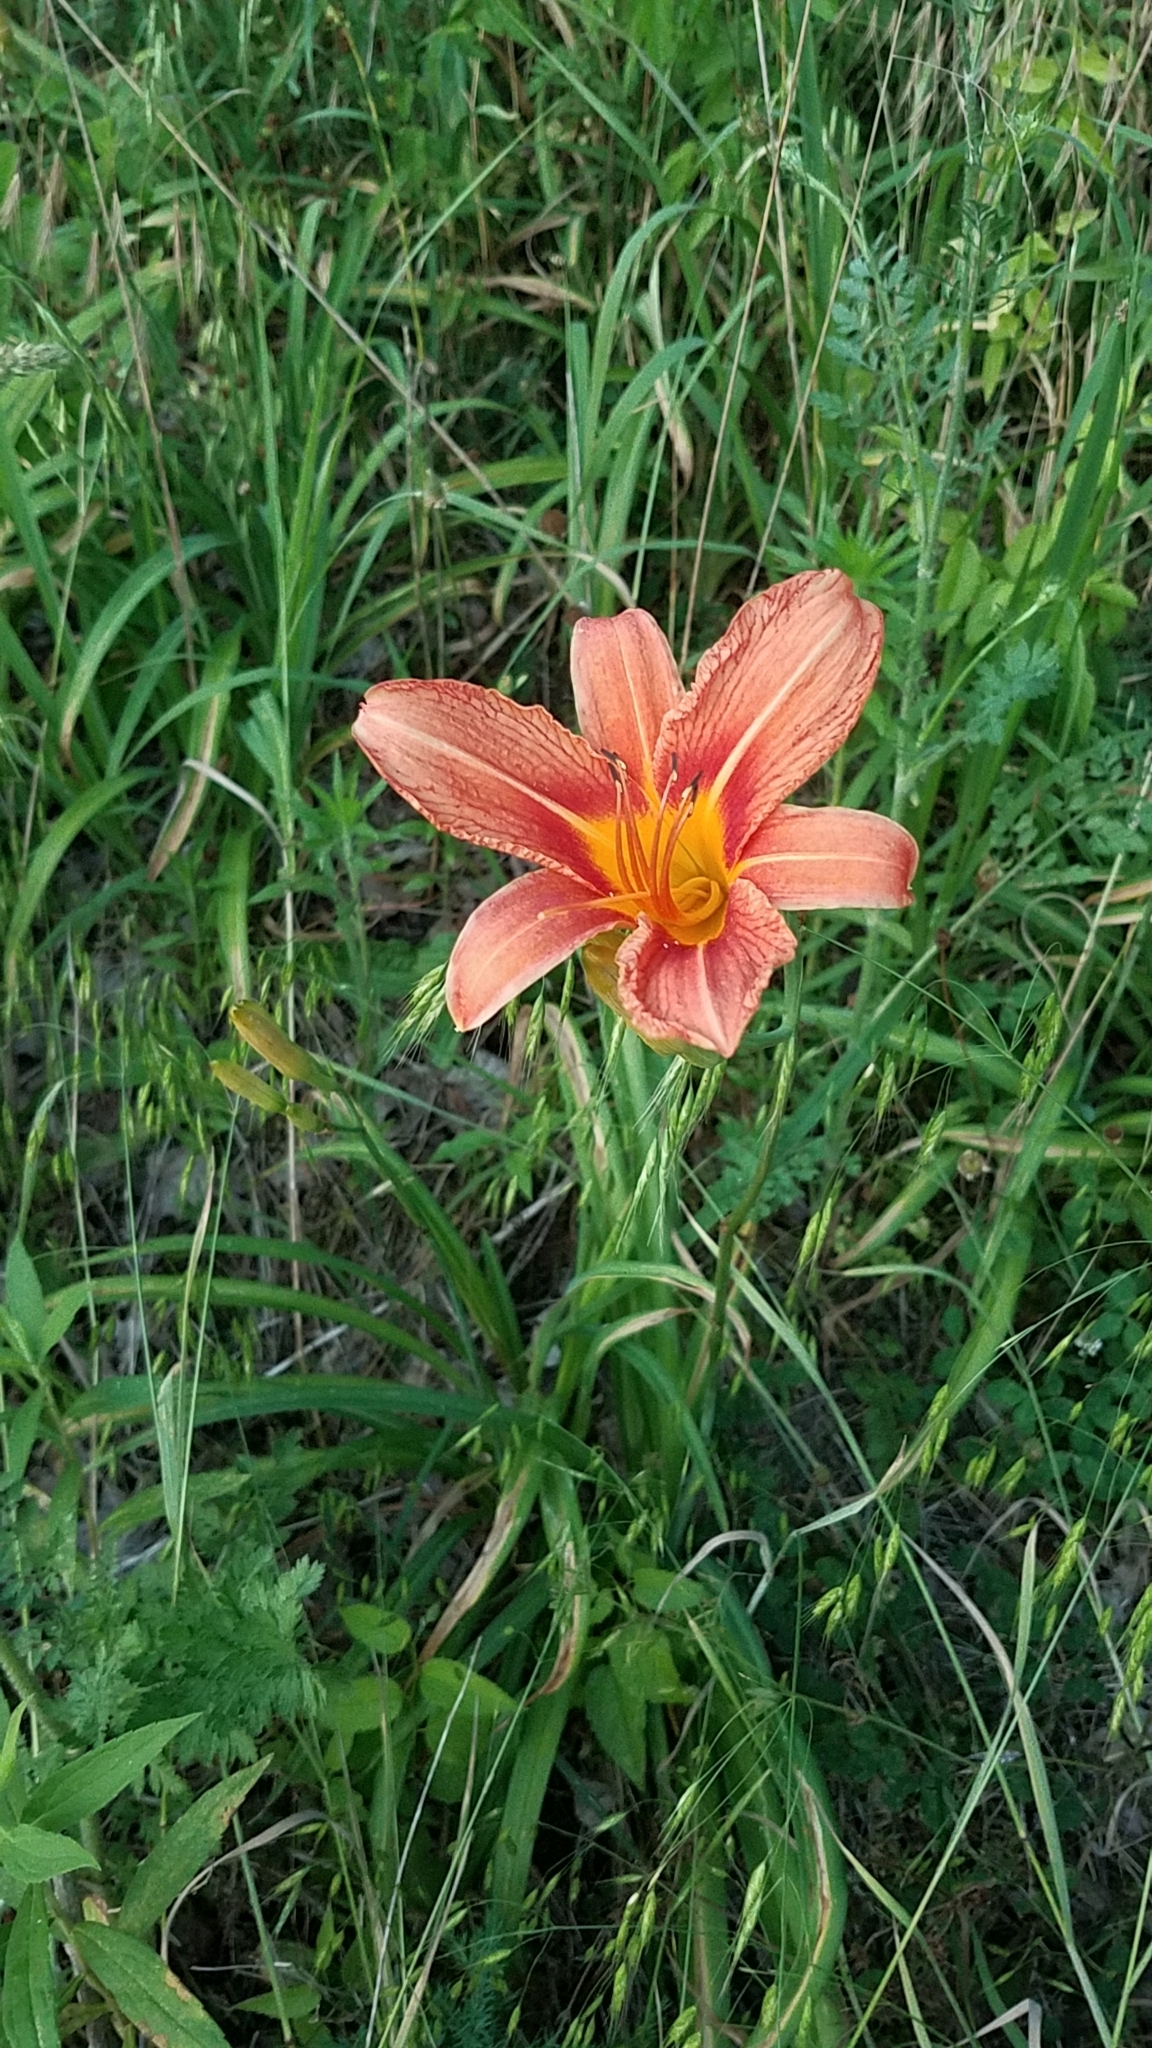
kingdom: Plantae
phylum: Tracheophyta
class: Liliopsida
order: Asparagales
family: Asphodelaceae
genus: Hemerocallis
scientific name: Hemerocallis fulva
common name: Orange day-lily
